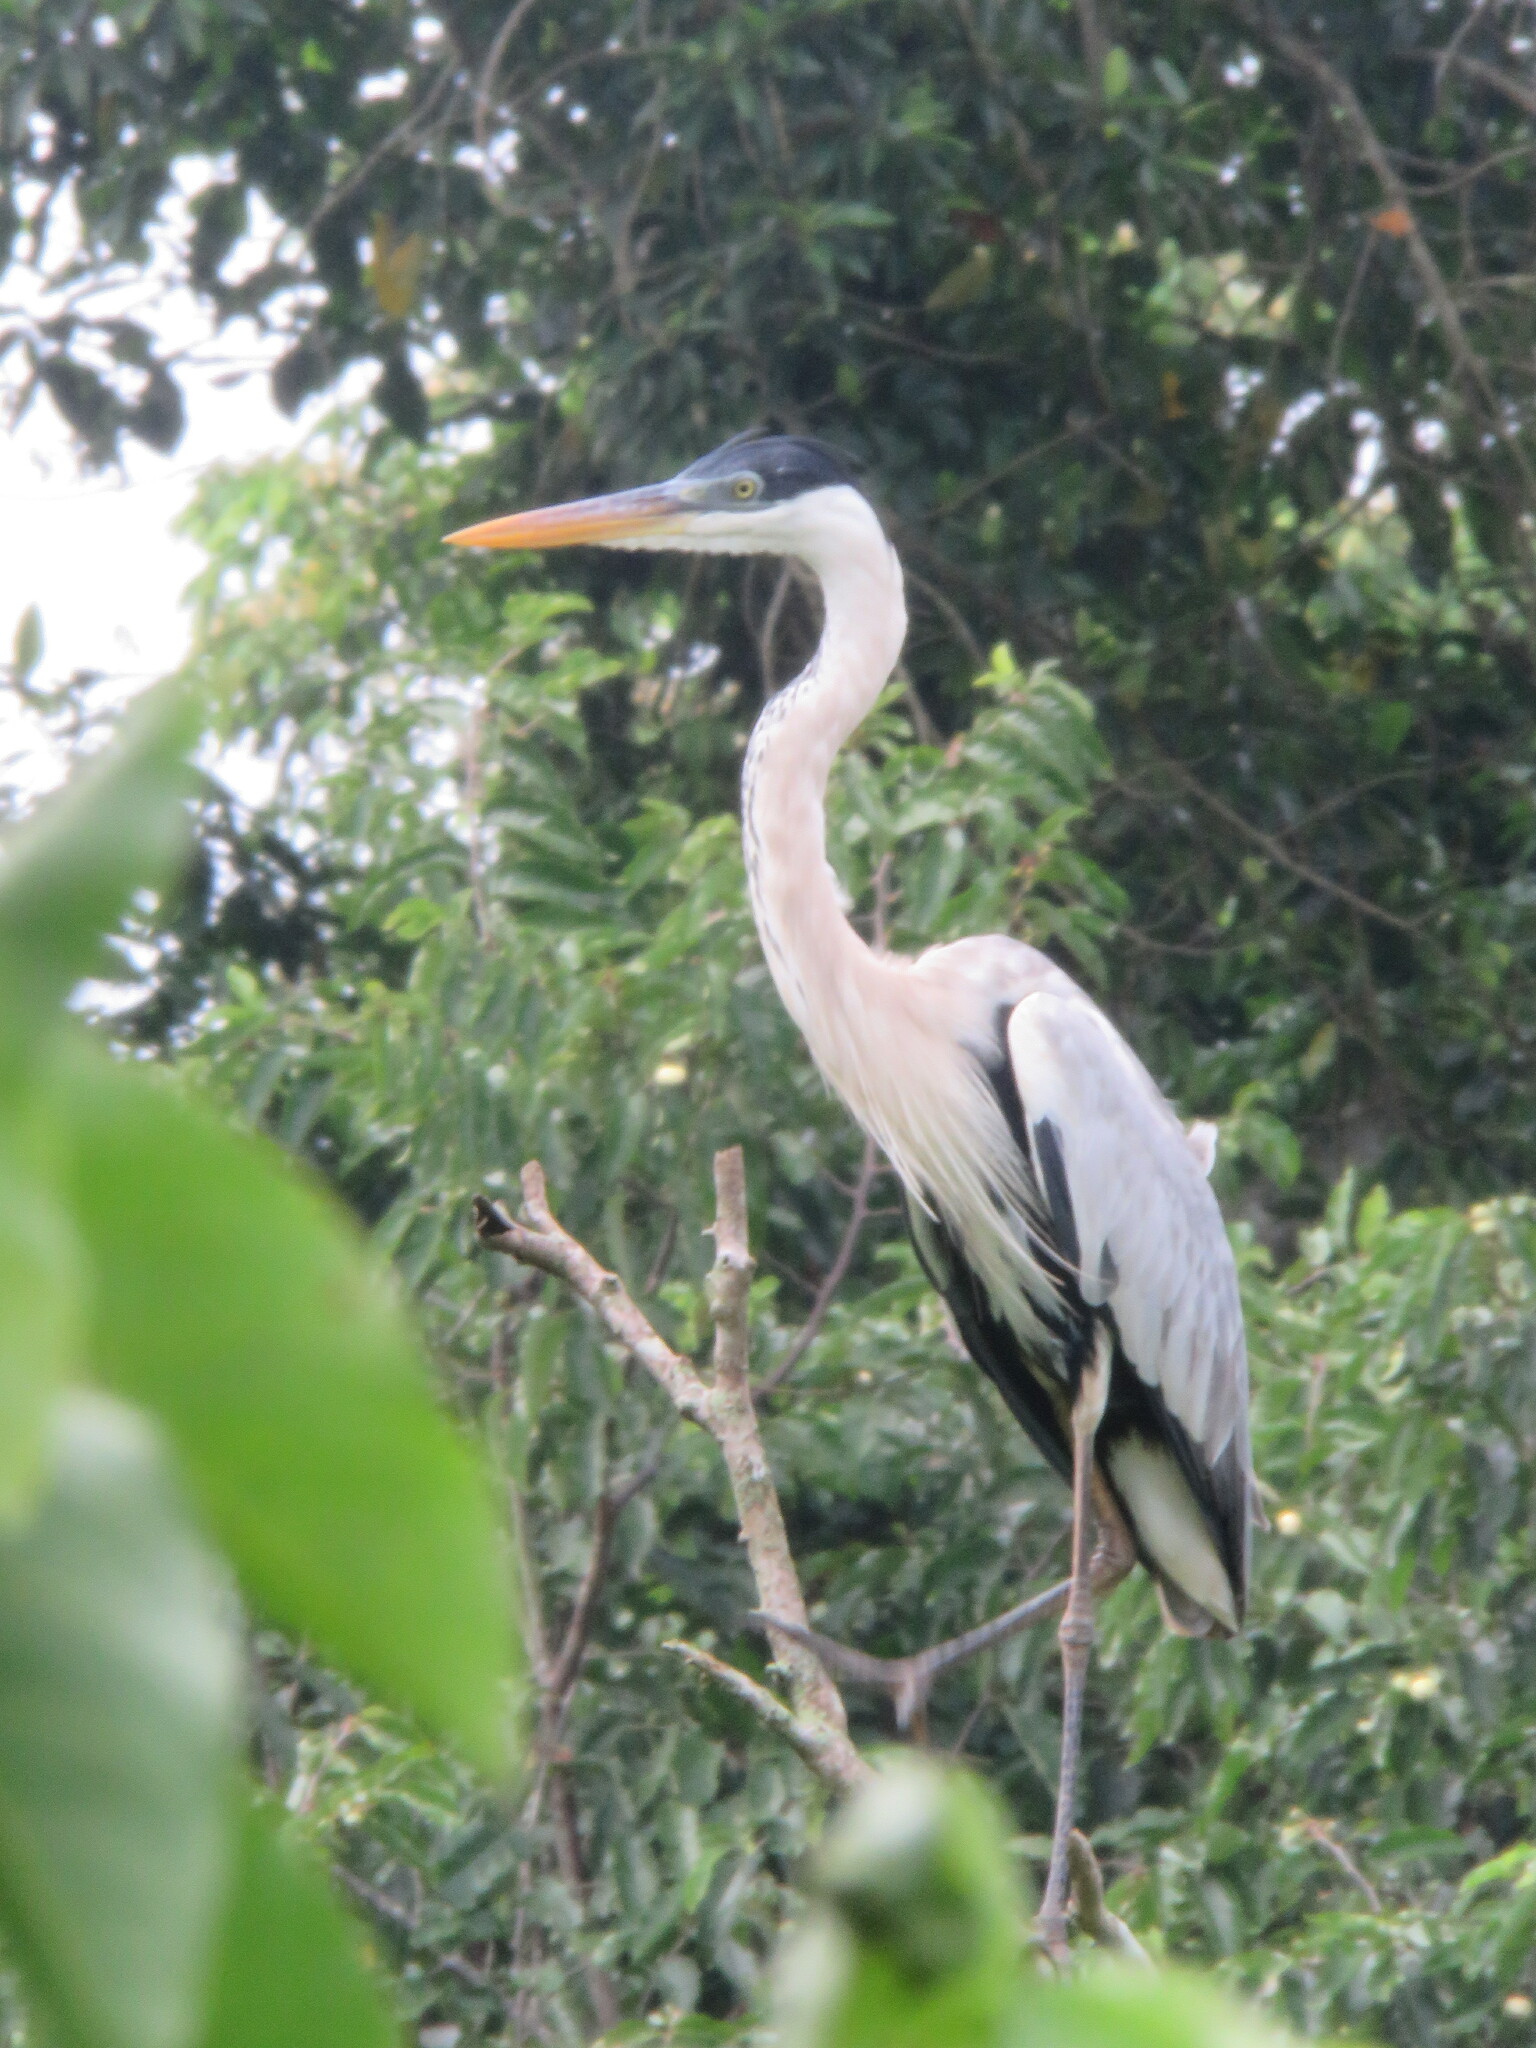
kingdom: Animalia
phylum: Chordata
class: Aves
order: Pelecaniformes
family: Ardeidae
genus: Ardea
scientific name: Ardea cocoi
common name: Cocoi heron
